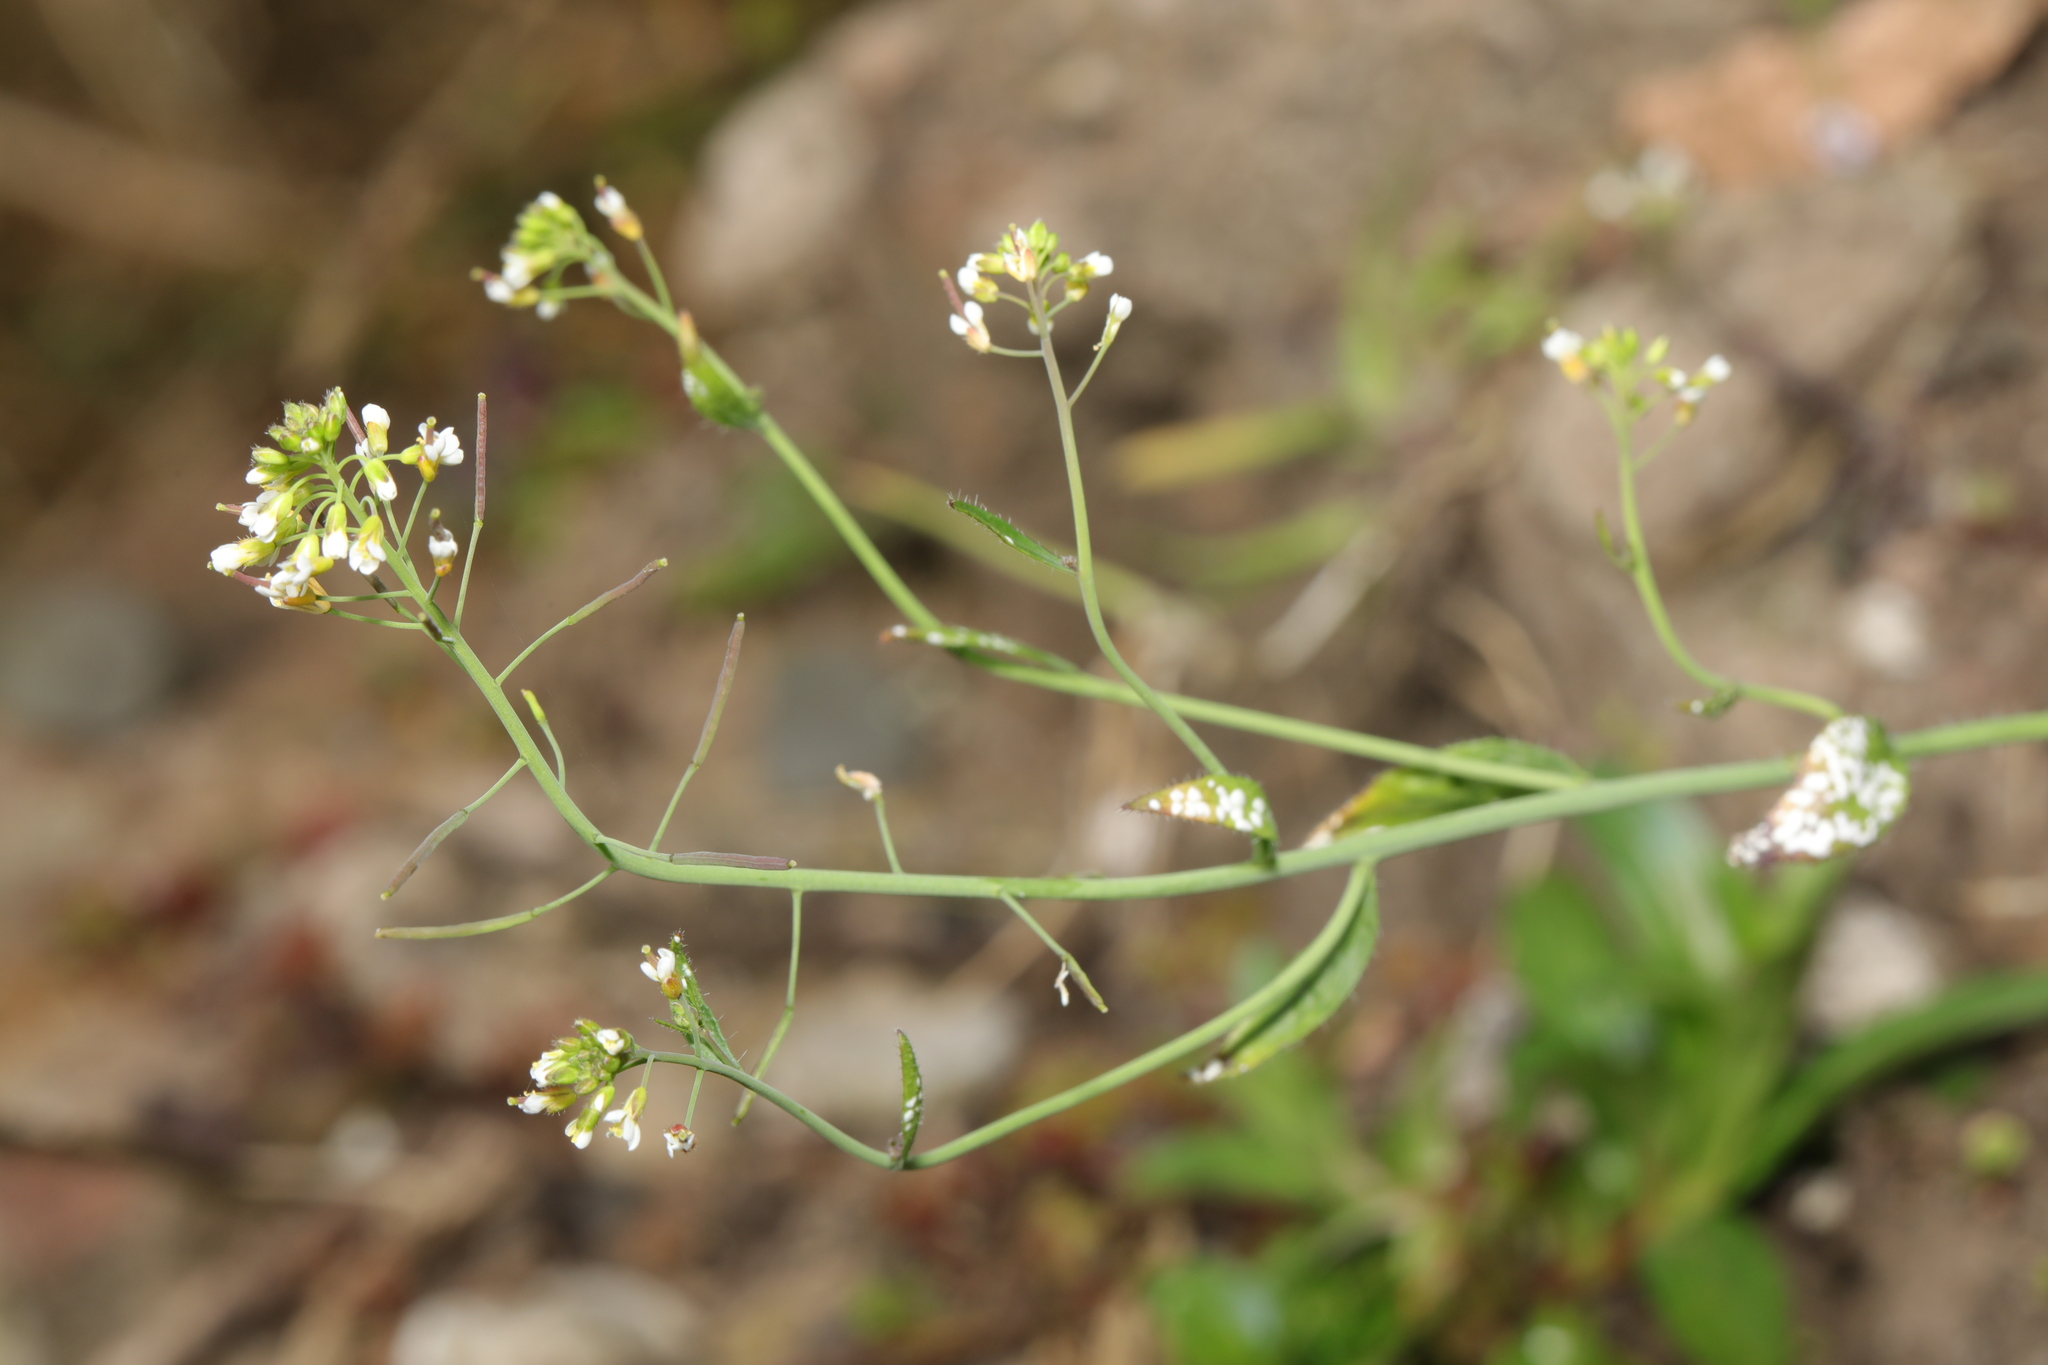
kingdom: Plantae
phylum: Tracheophyta
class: Magnoliopsida
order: Brassicales
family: Brassicaceae
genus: Arabidopsis
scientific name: Arabidopsis thaliana
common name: Thale cress
